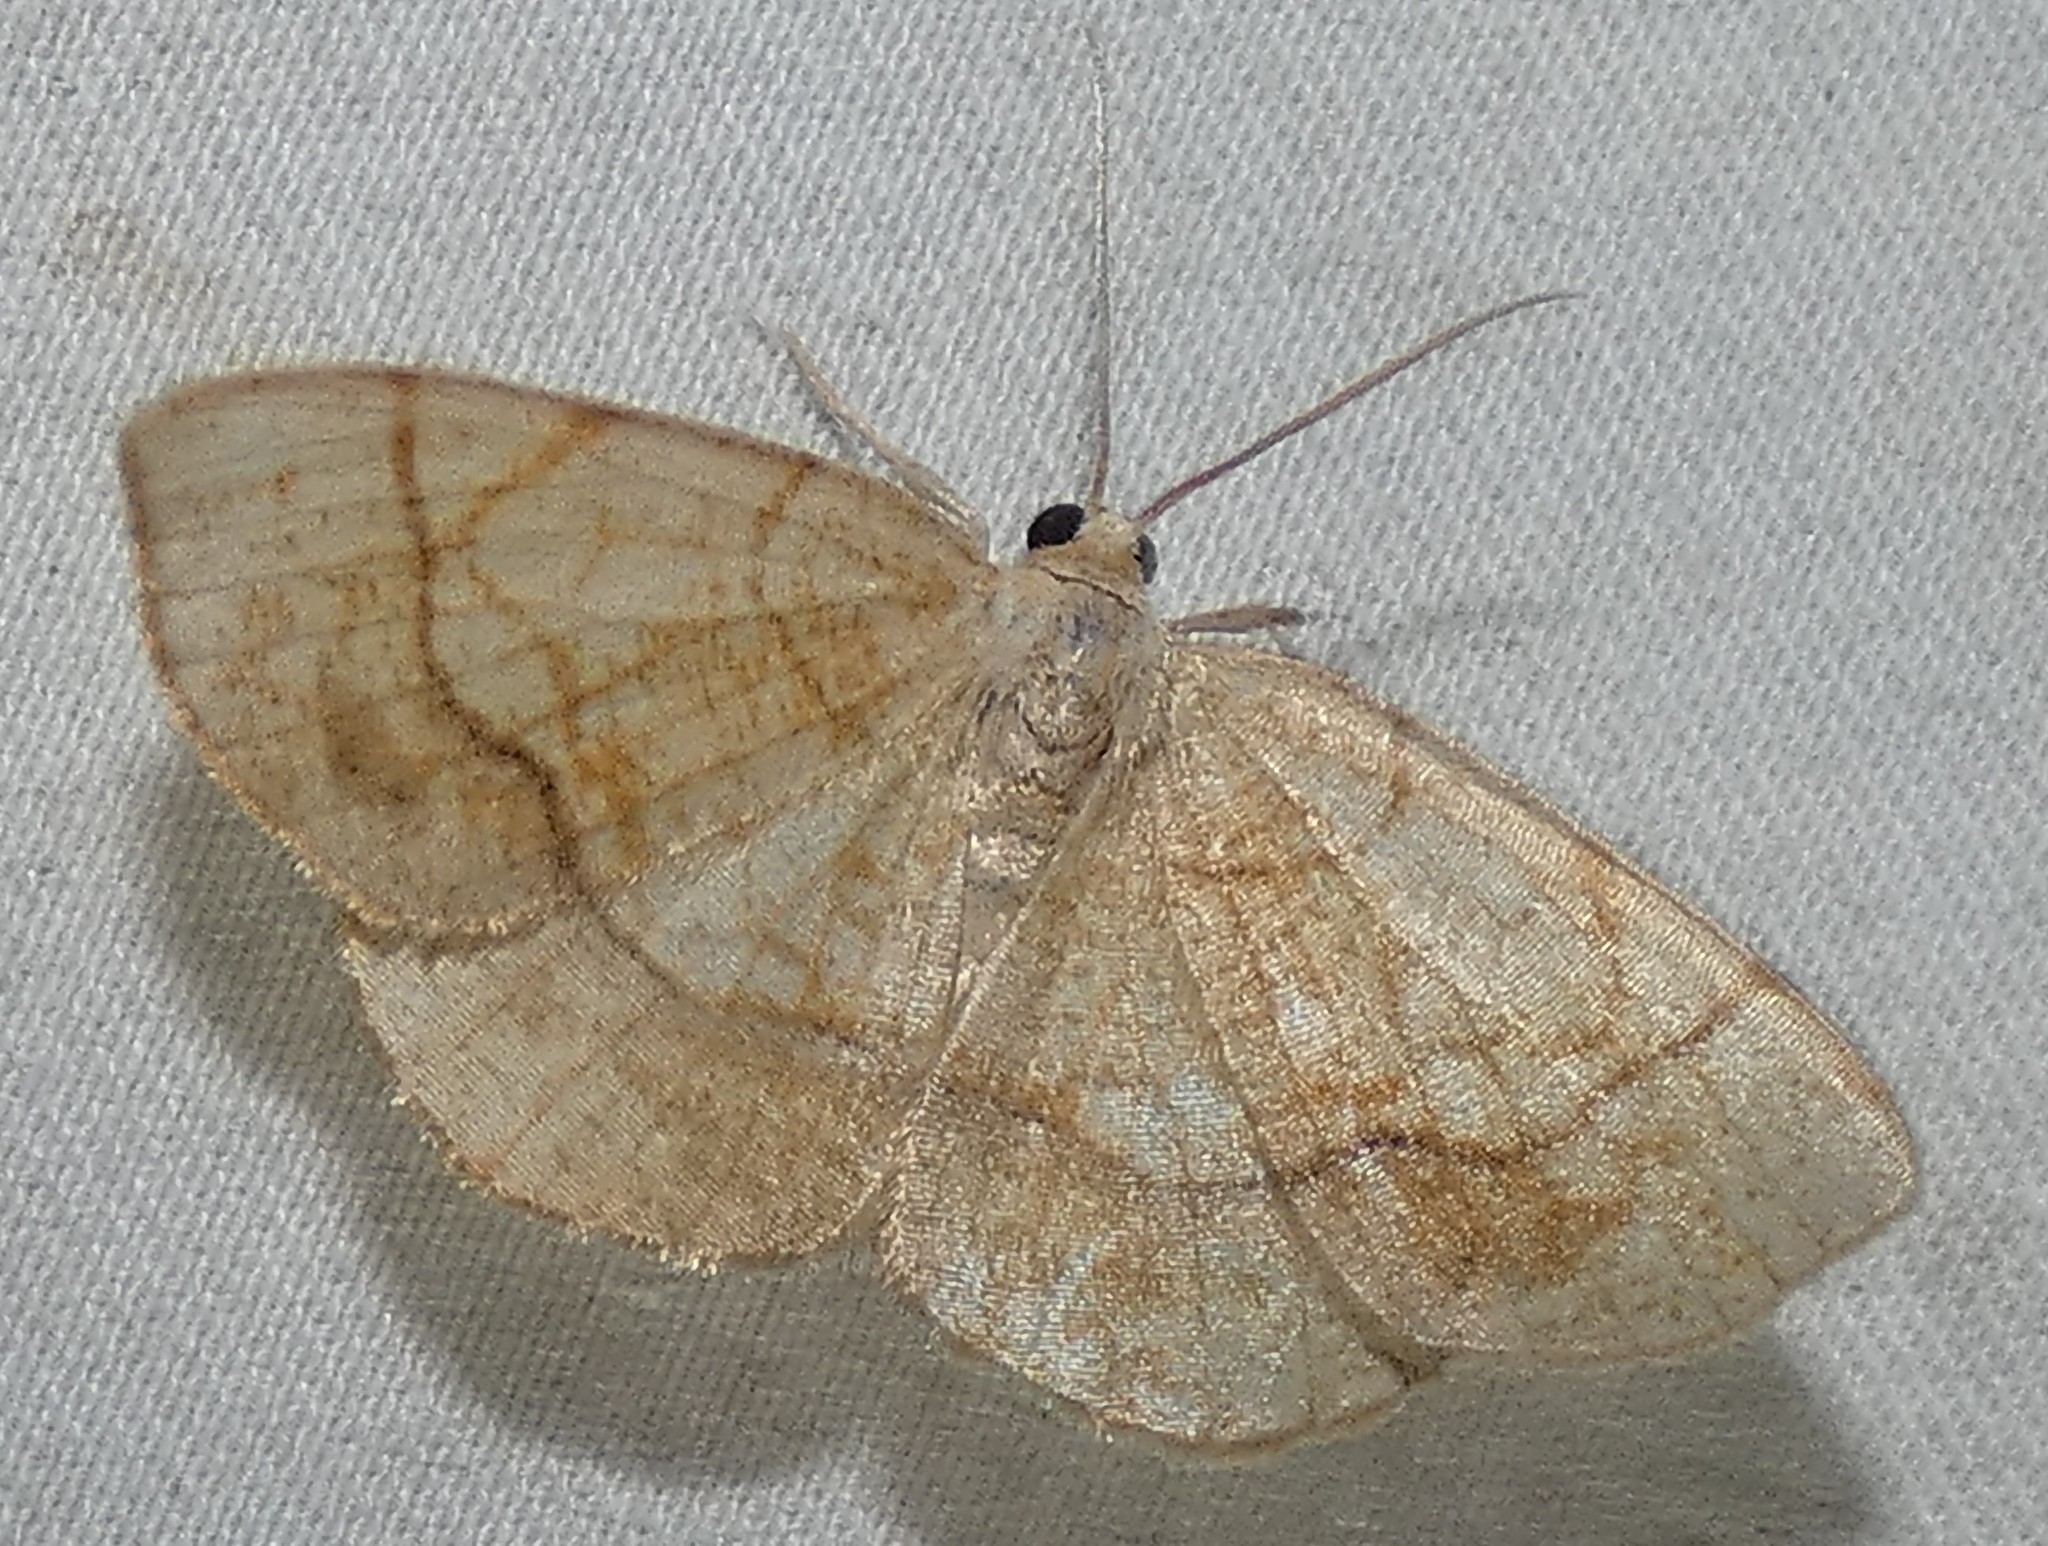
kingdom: Animalia
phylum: Arthropoda
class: Insecta
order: Lepidoptera
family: Geometridae
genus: Nematocampa
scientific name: Nematocampa resistaria
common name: Horned spanworm moth
